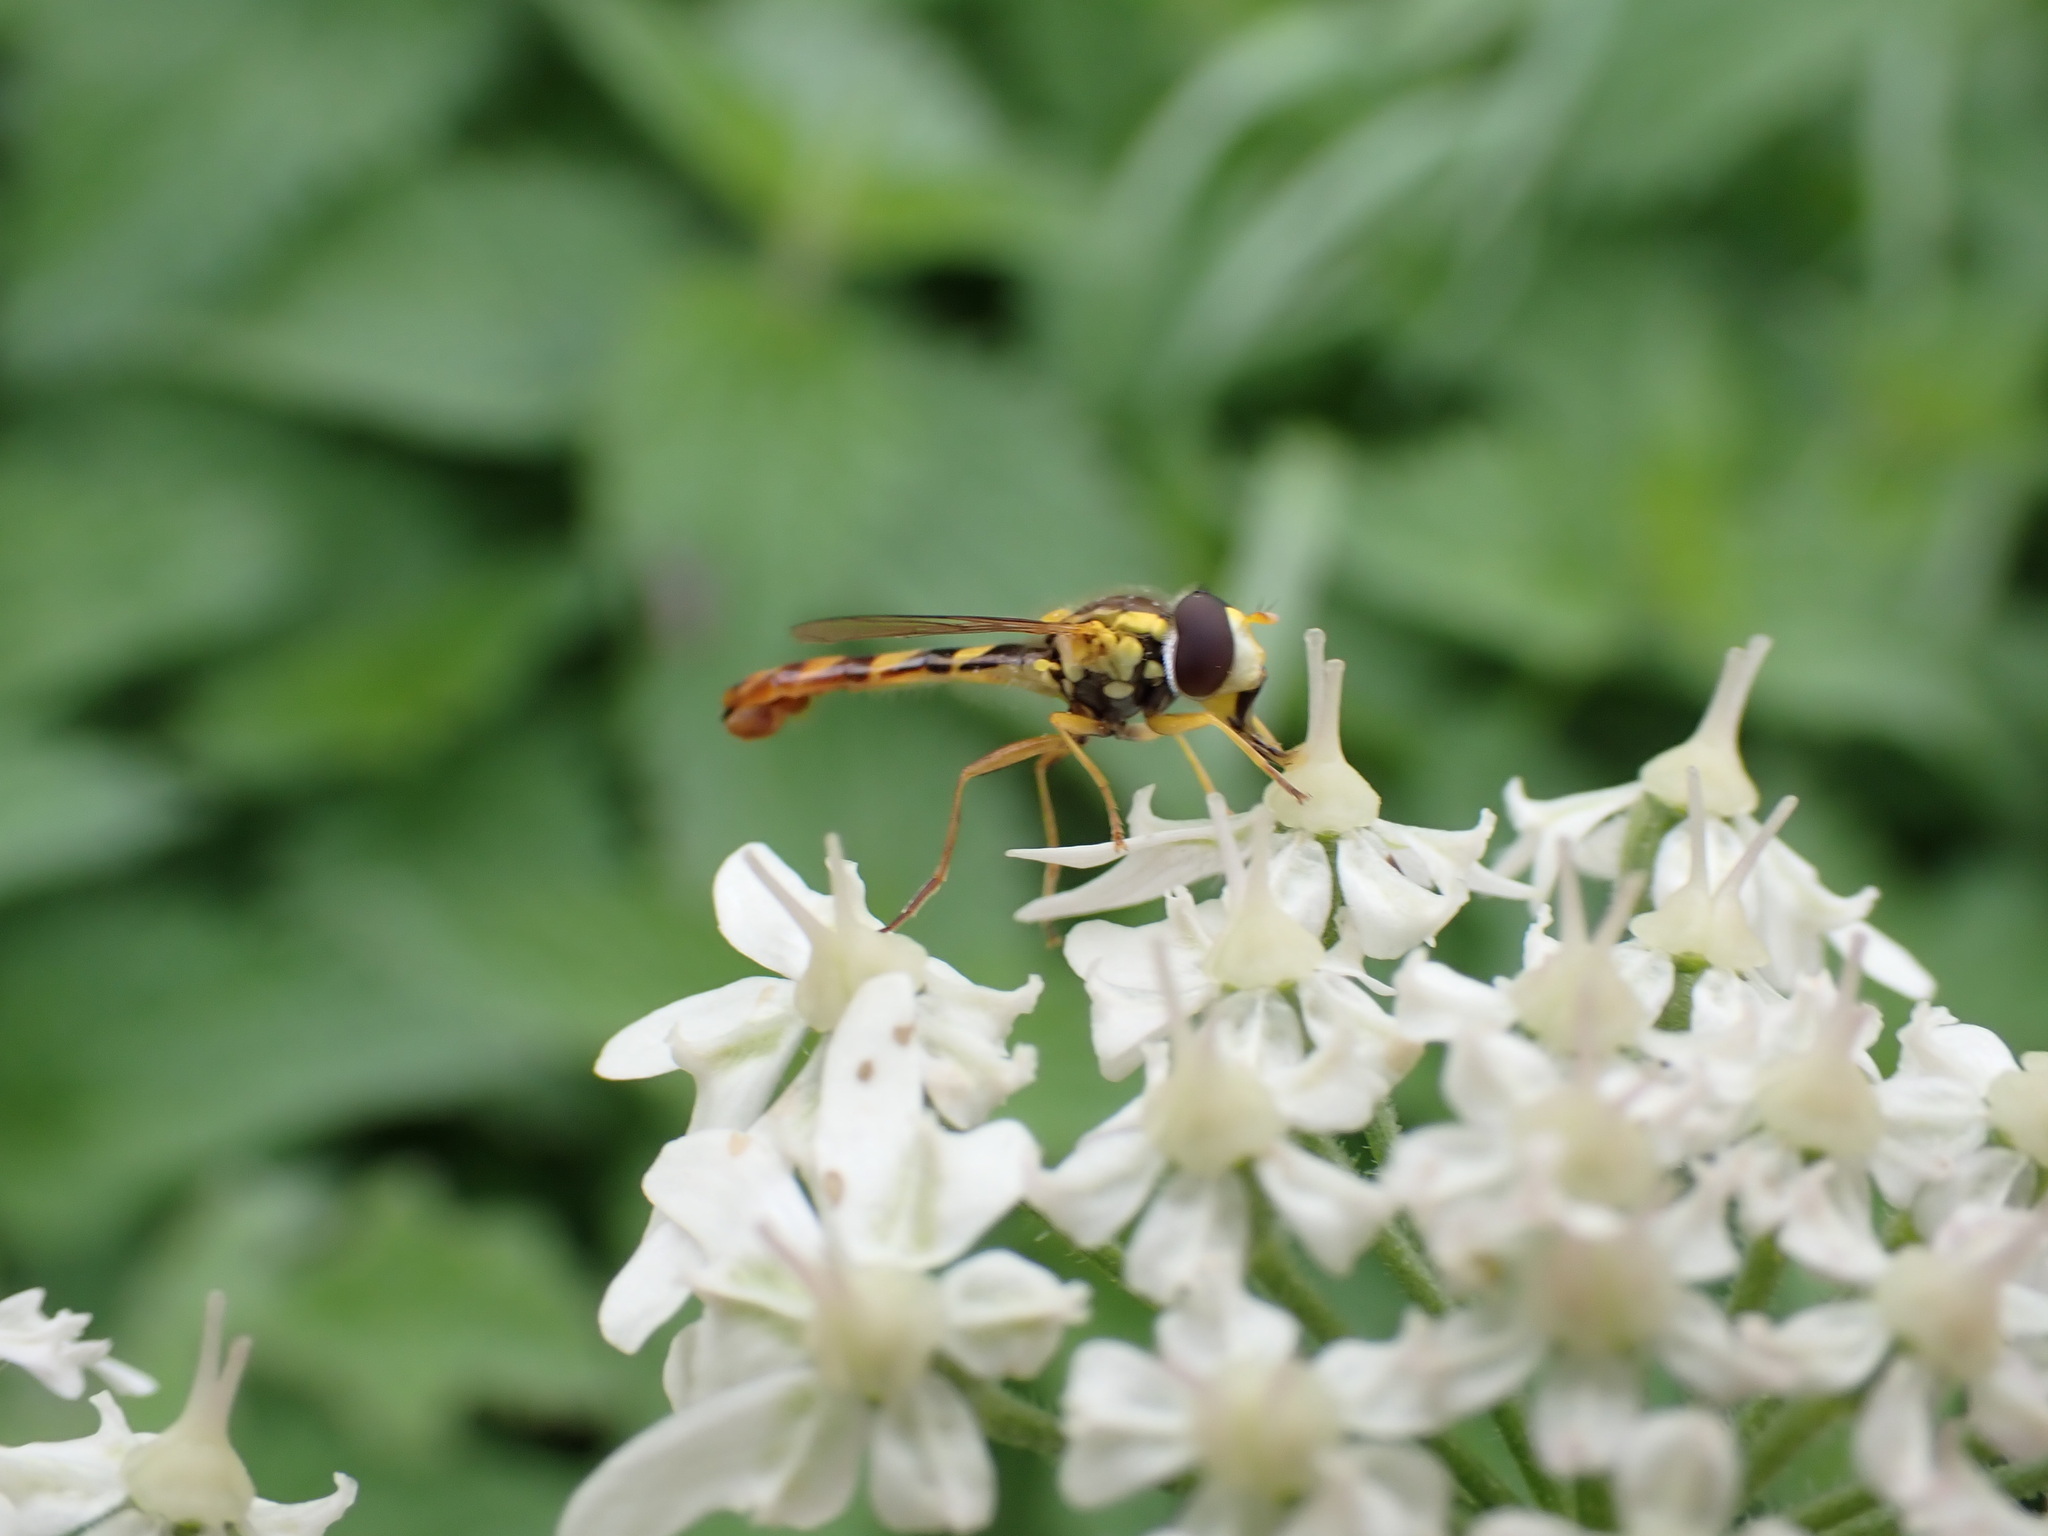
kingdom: Animalia
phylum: Arthropoda
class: Insecta
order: Diptera
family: Syrphidae
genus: Sphaerophoria
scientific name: Sphaerophoria scripta
